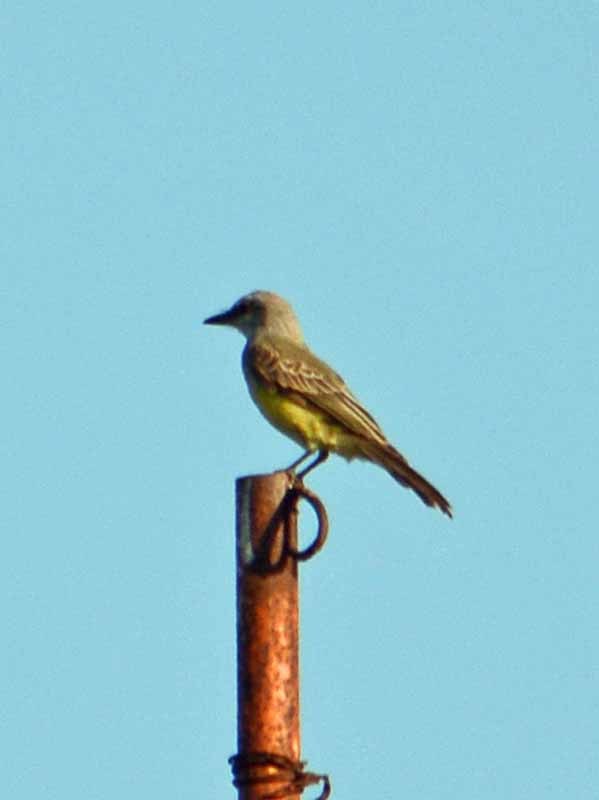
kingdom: Animalia
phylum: Chordata
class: Aves
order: Passeriformes
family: Tyrannidae
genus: Tyrannus
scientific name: Tyrannus
